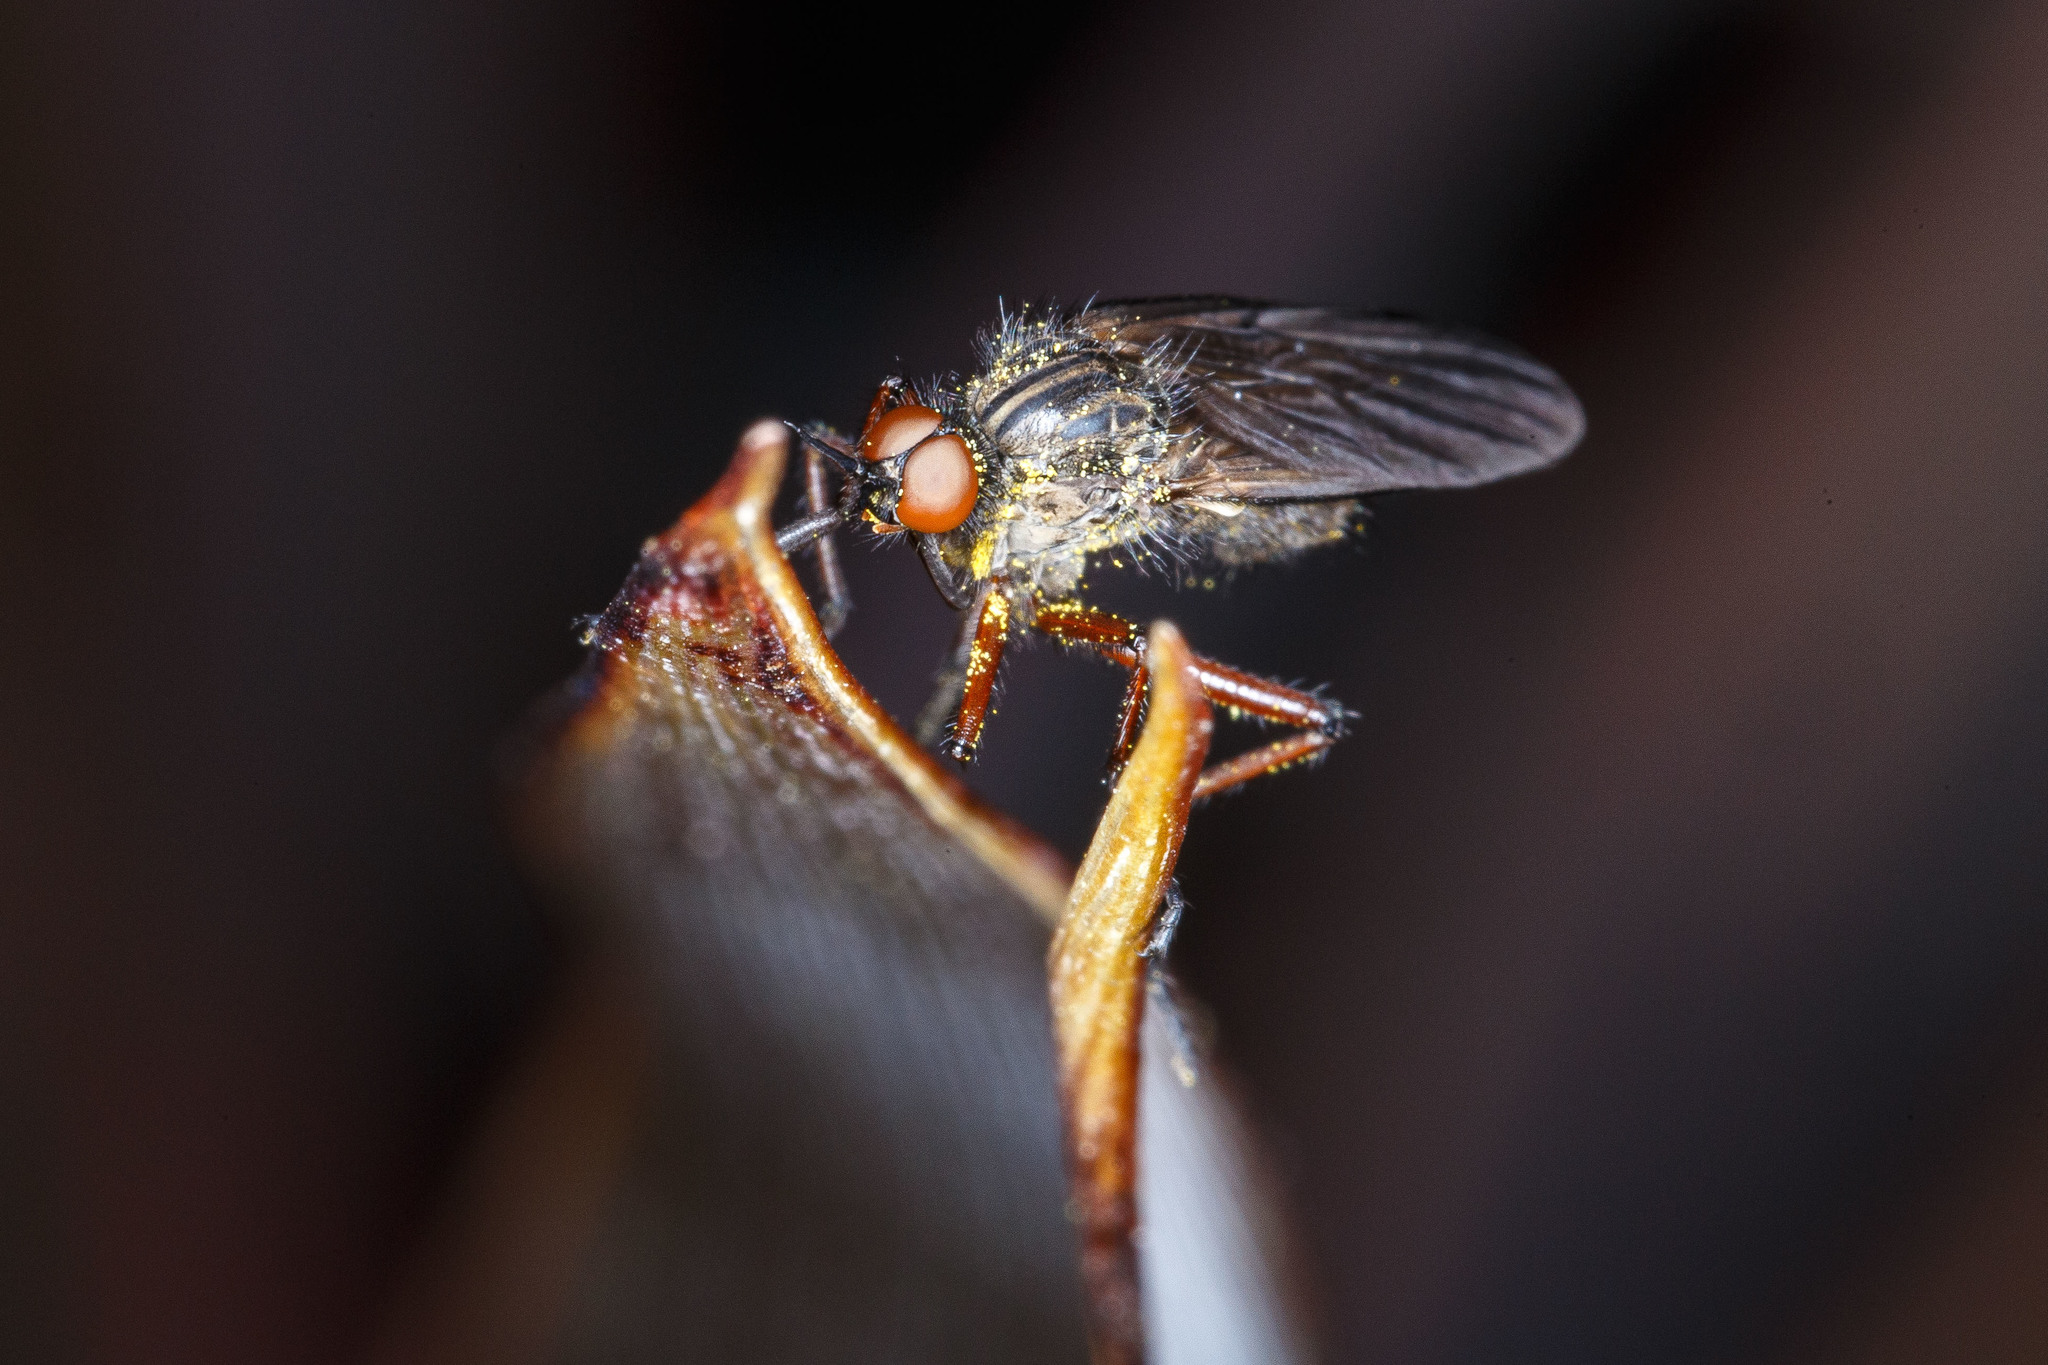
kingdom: Animalia
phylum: Arthropoda
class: Insecta
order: Diptera
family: Empididae
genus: Empis
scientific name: Empis barbatoides
